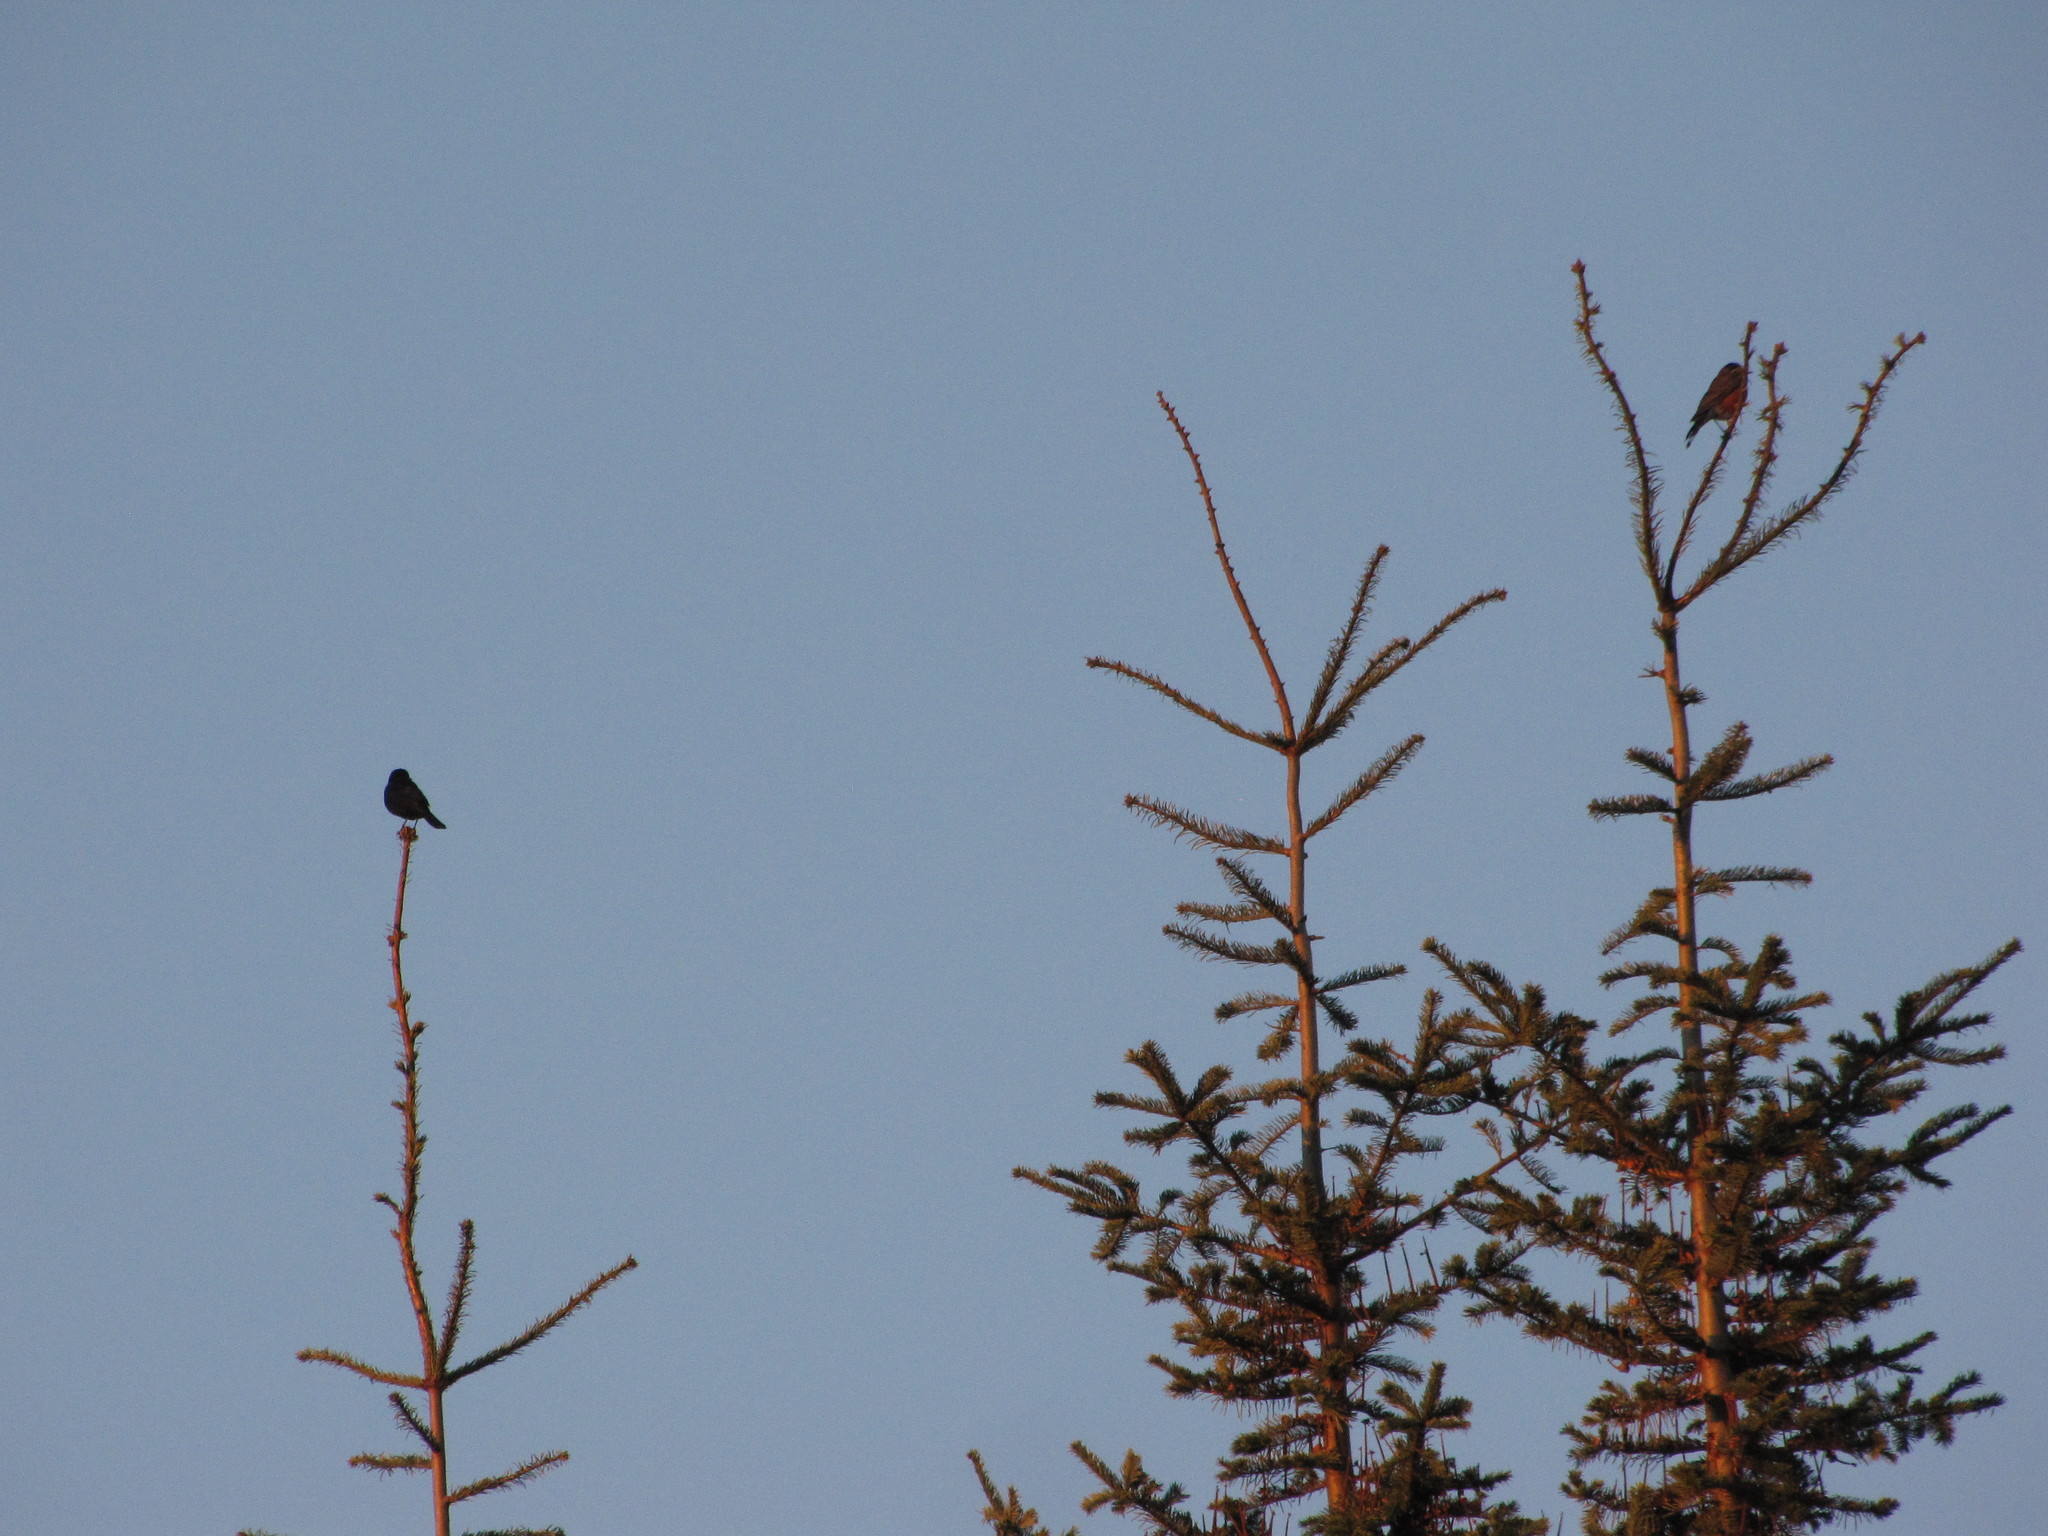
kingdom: Animalia
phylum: Chordata
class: Aves
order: Passeriformes
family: Turdidae
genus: Turdus
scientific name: Turdus migratorius
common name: American robin
